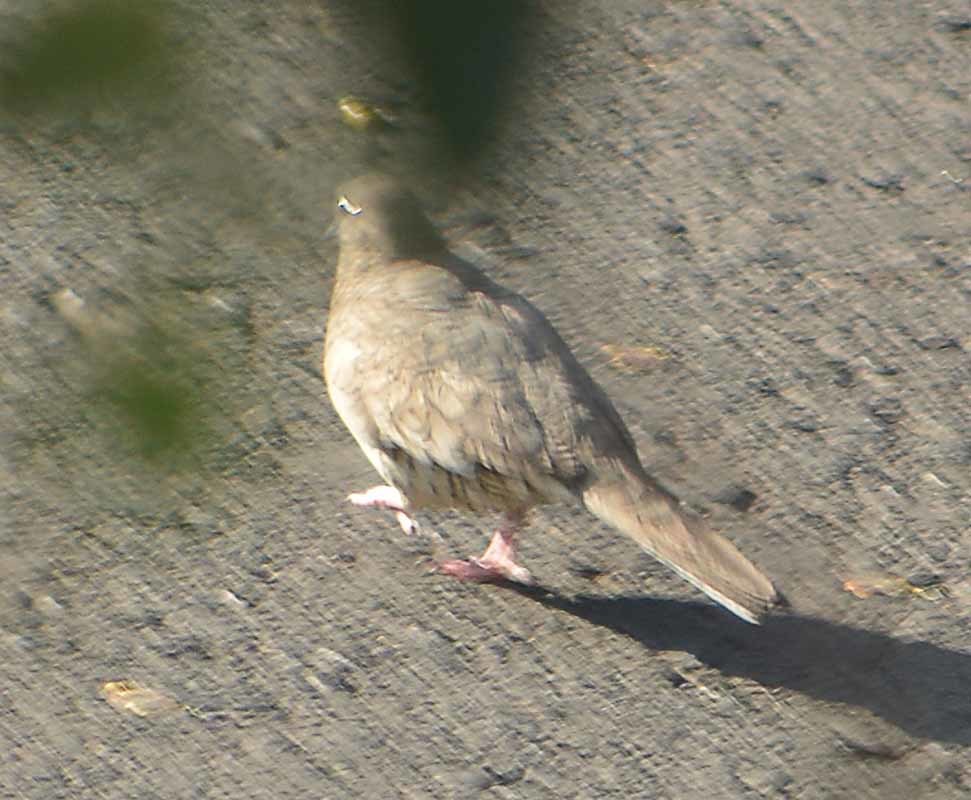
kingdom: Animalia
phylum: Chordata
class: Aves
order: Columbiformes
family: Columbidae
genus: Columbina
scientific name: Columbina inca
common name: Inca dove
